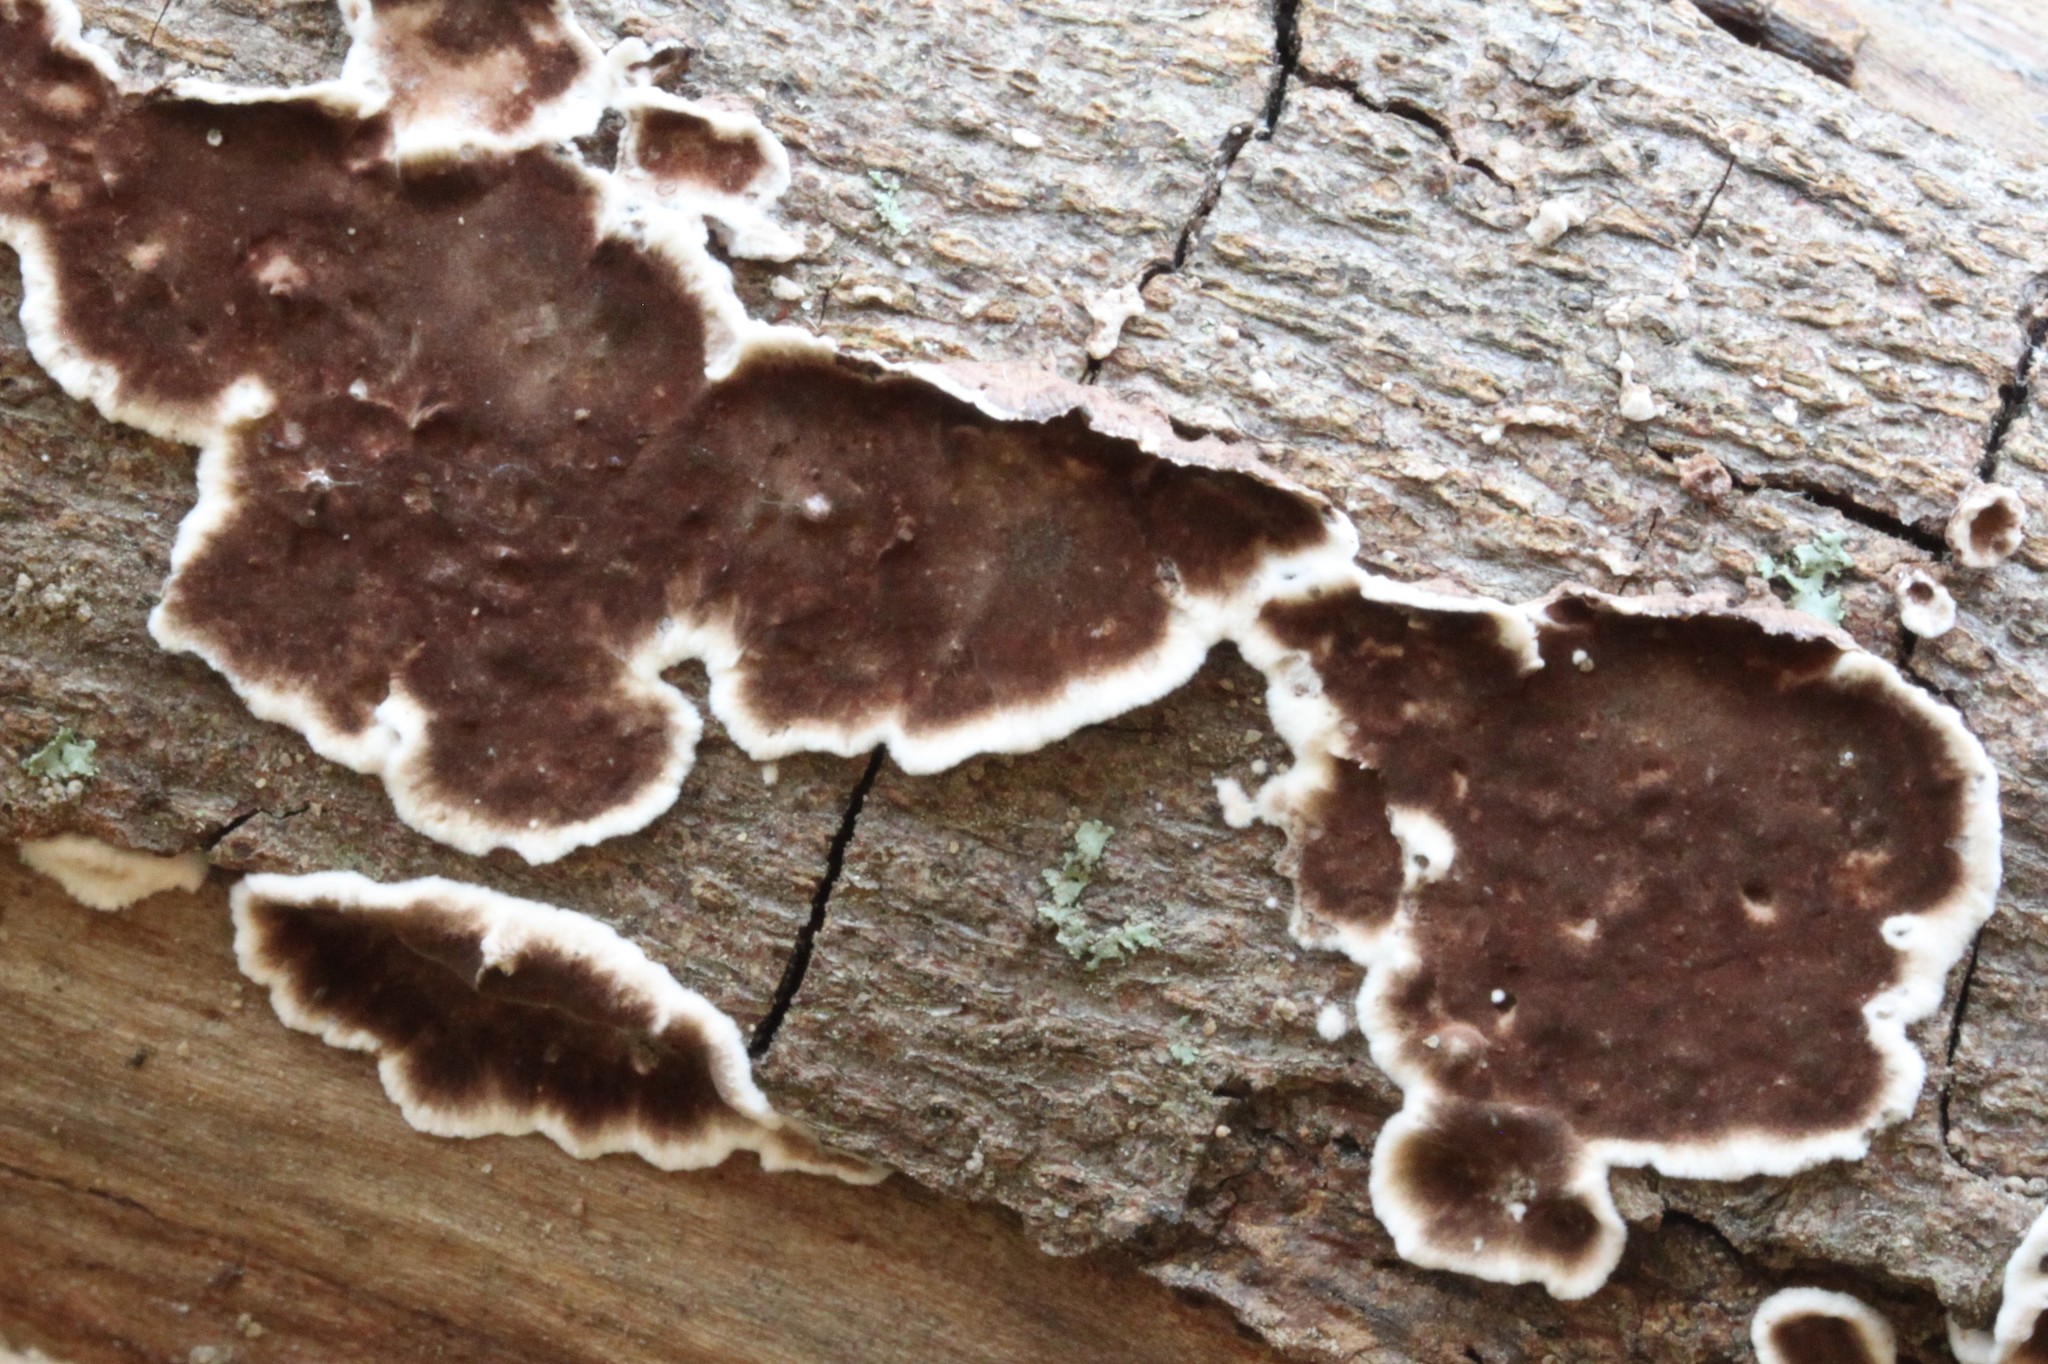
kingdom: Fungi
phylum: Basidiomycota
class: Agaricomycetes
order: Russulales
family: Peniophoraceae
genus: Peniophora
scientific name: Peniophora albobadia
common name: Giraffe spots
